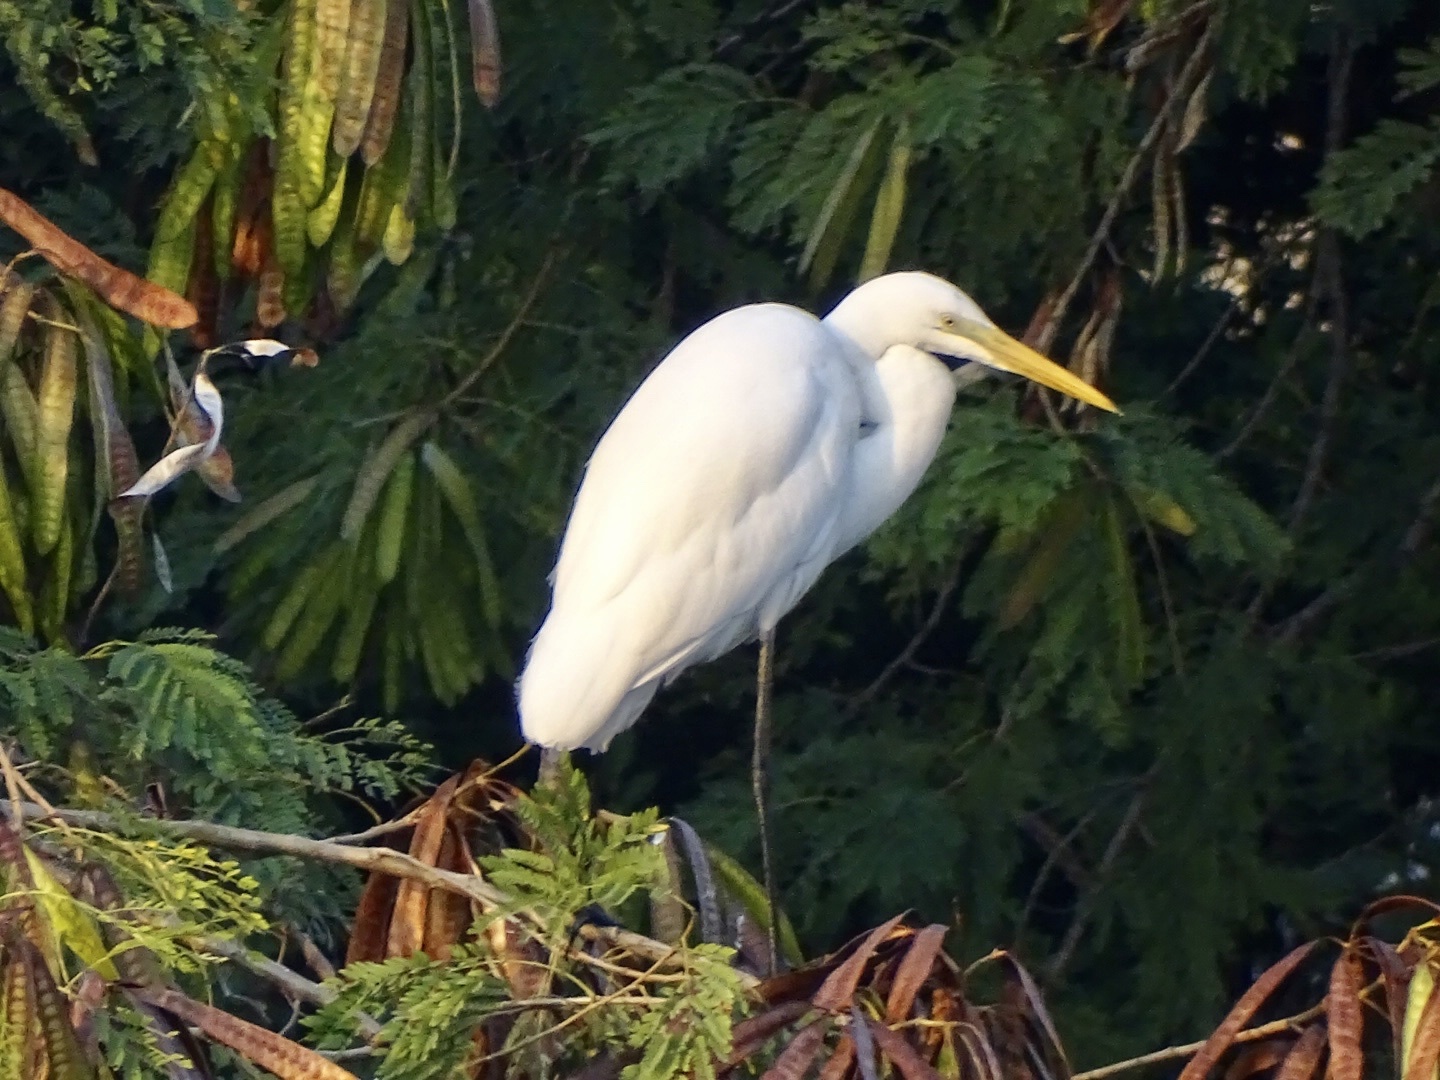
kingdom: Animalia
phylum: Chordata
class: Aves
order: Pelecaniformes
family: Ardeidae
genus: Ardea
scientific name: Ardea alba
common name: Great egret
